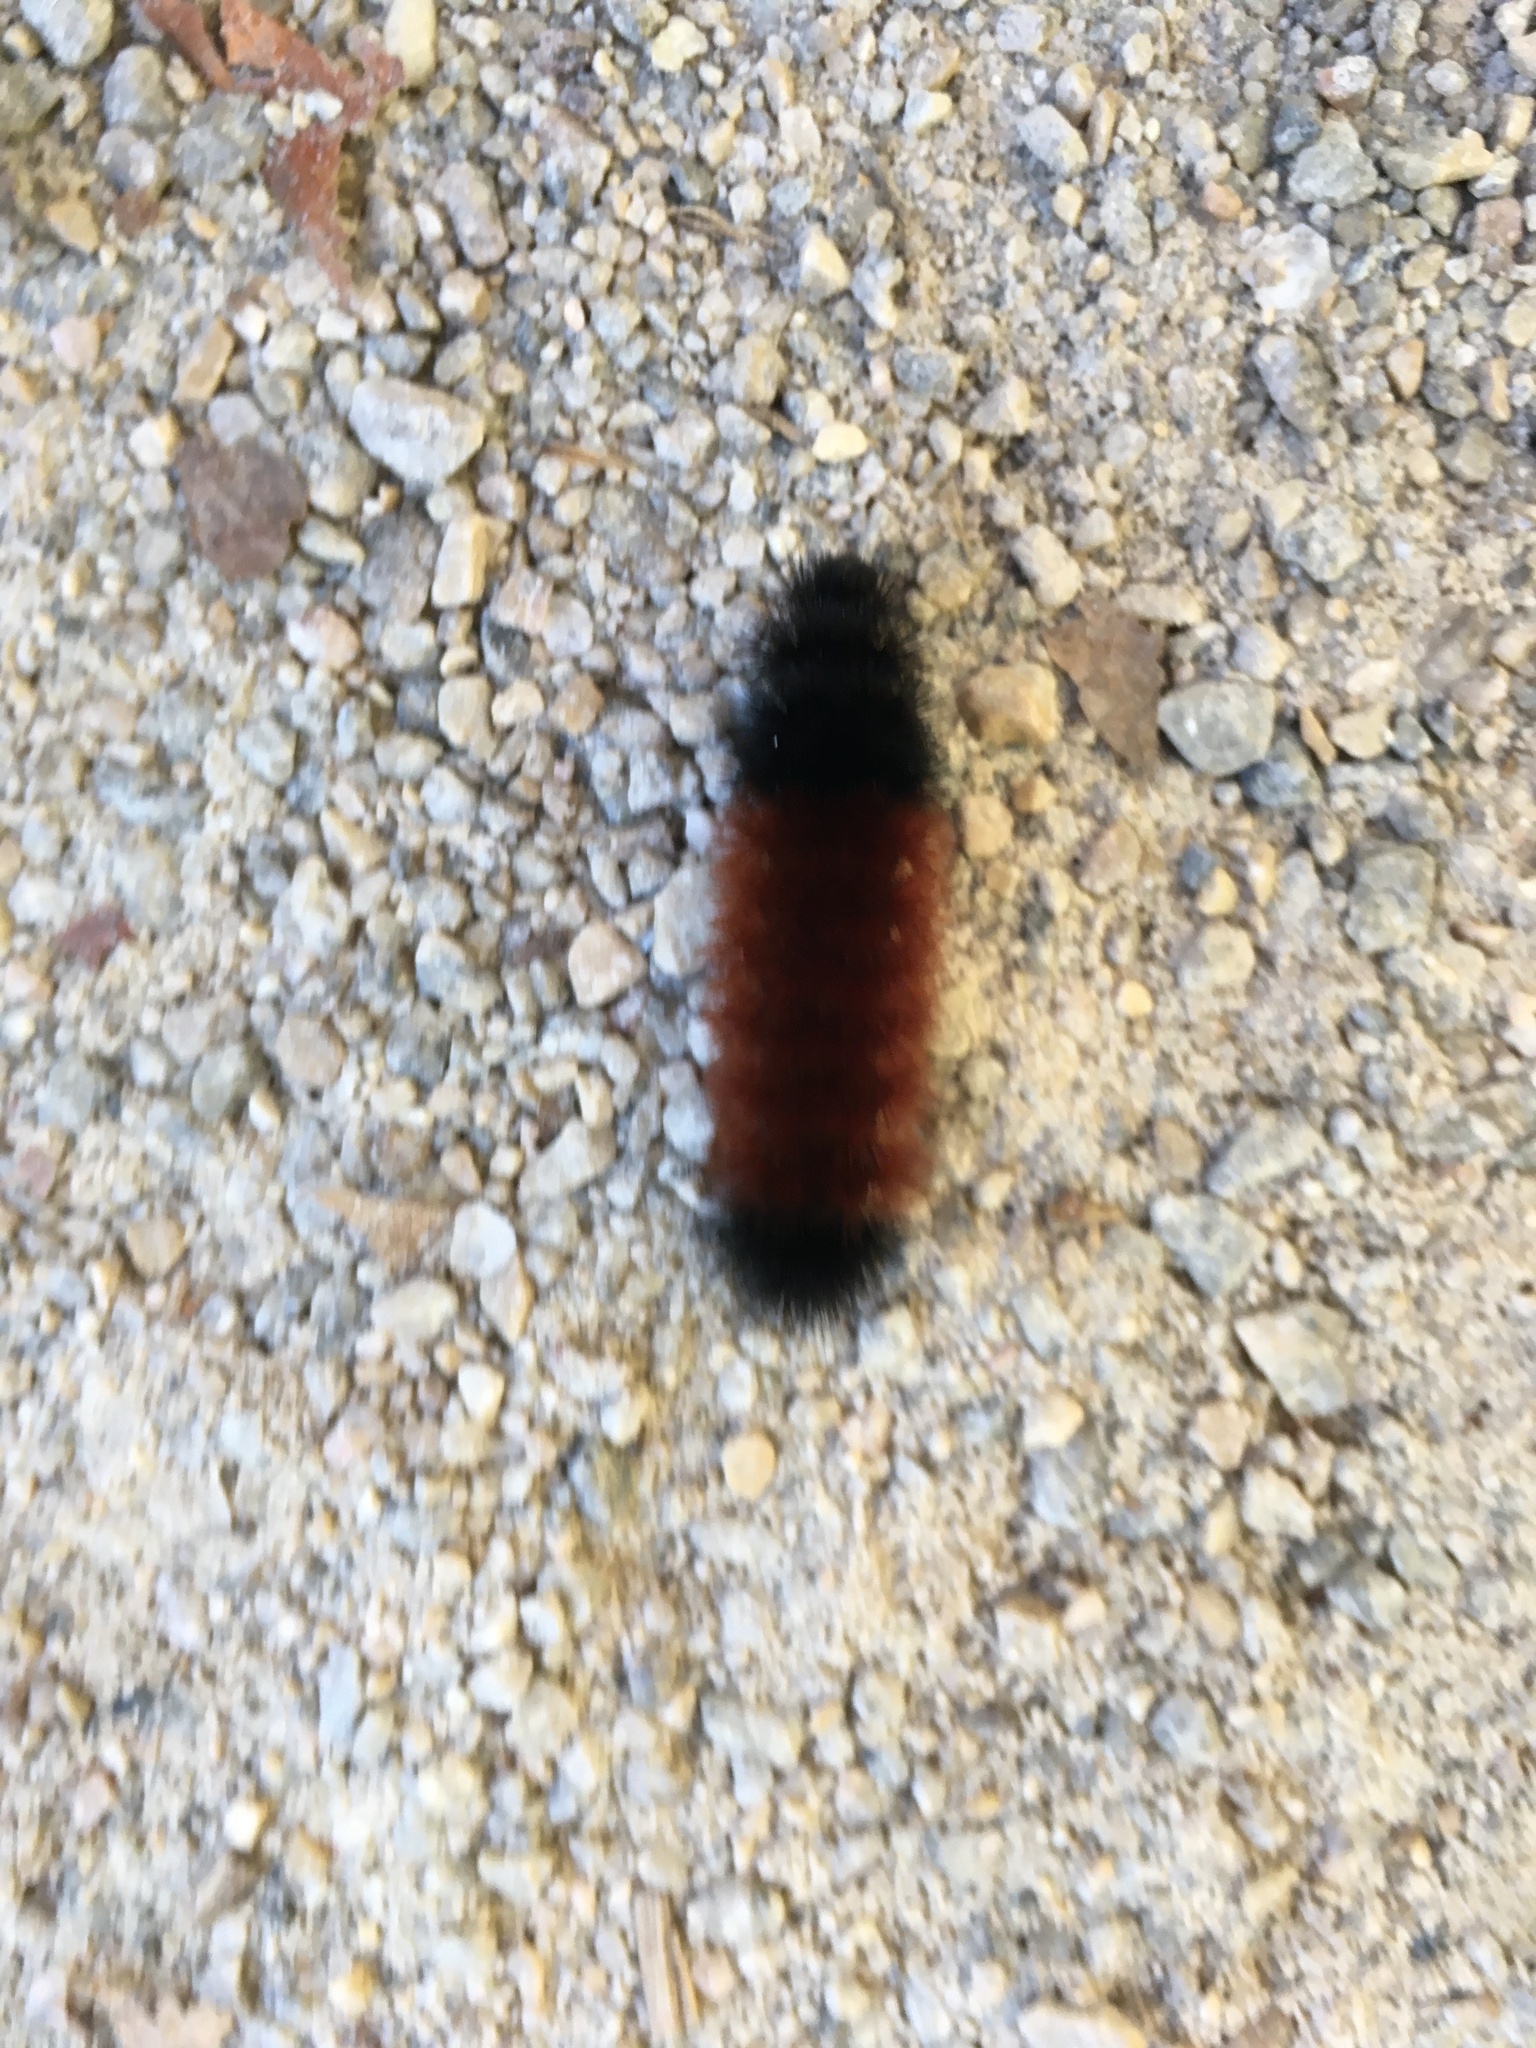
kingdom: Animalia
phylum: Arthropoda
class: Insecta
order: Lepidoptera
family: Erebidae
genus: Pyrrharctia
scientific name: Pyrrharctia isabella
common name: Isabella tiger moth
